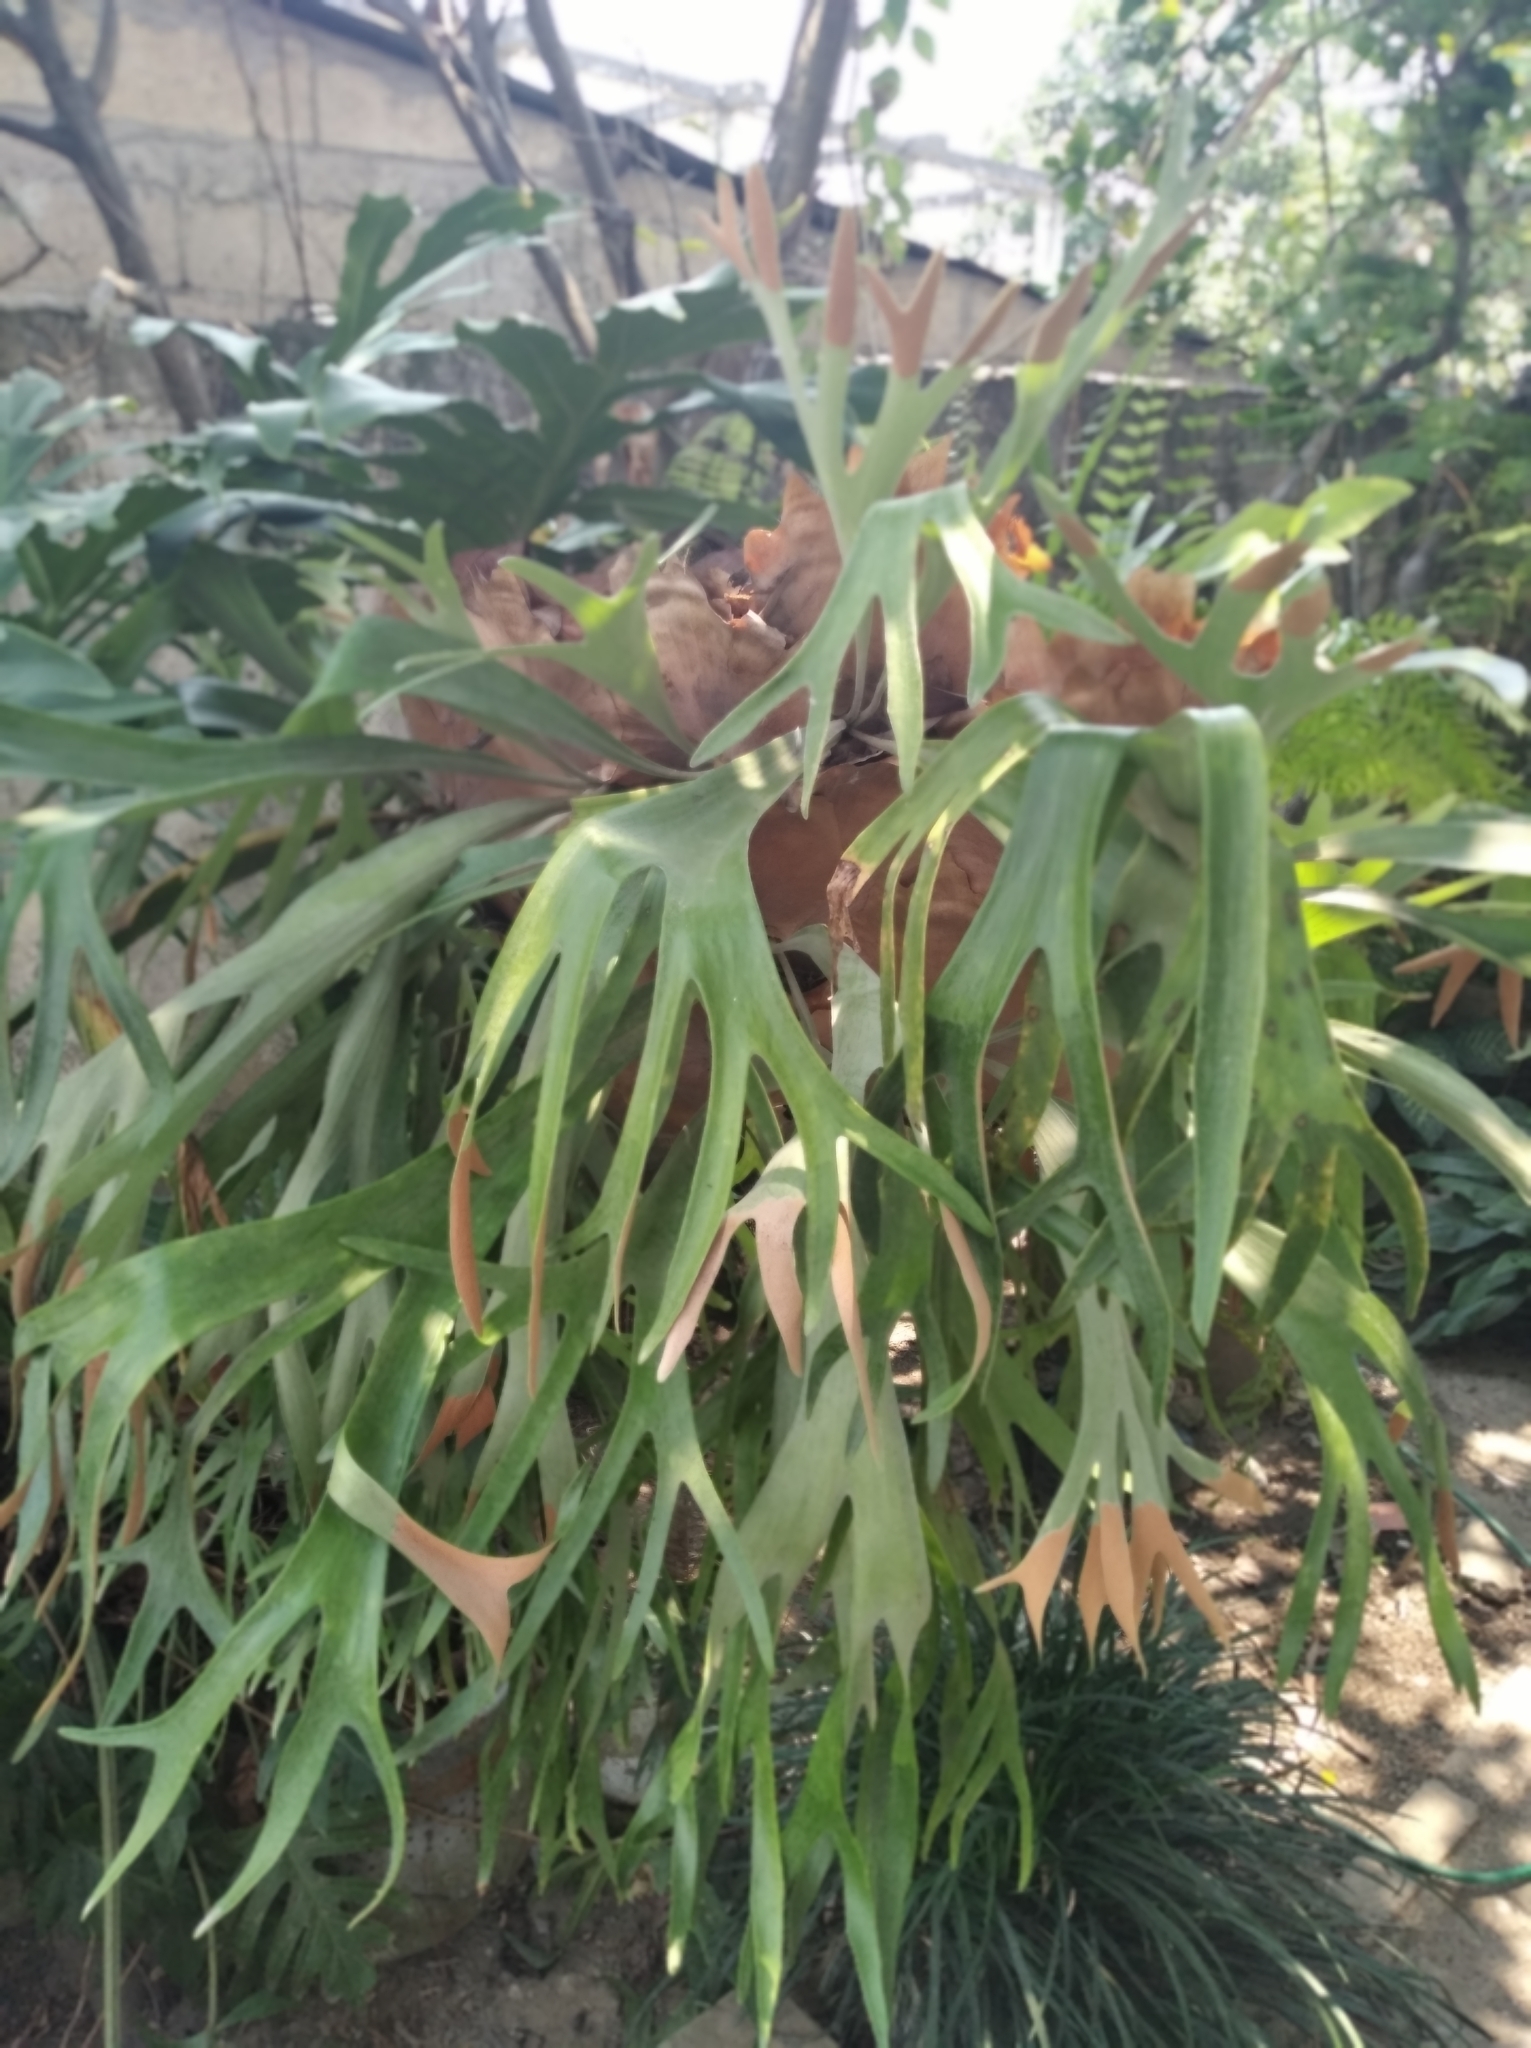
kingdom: Plantae
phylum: Tracheophyta
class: Polypodiopsida
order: Polypodiales
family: Polypodiaceae
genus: Platycerium
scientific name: Platycerium bifurcatum
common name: Elkhorn fern
